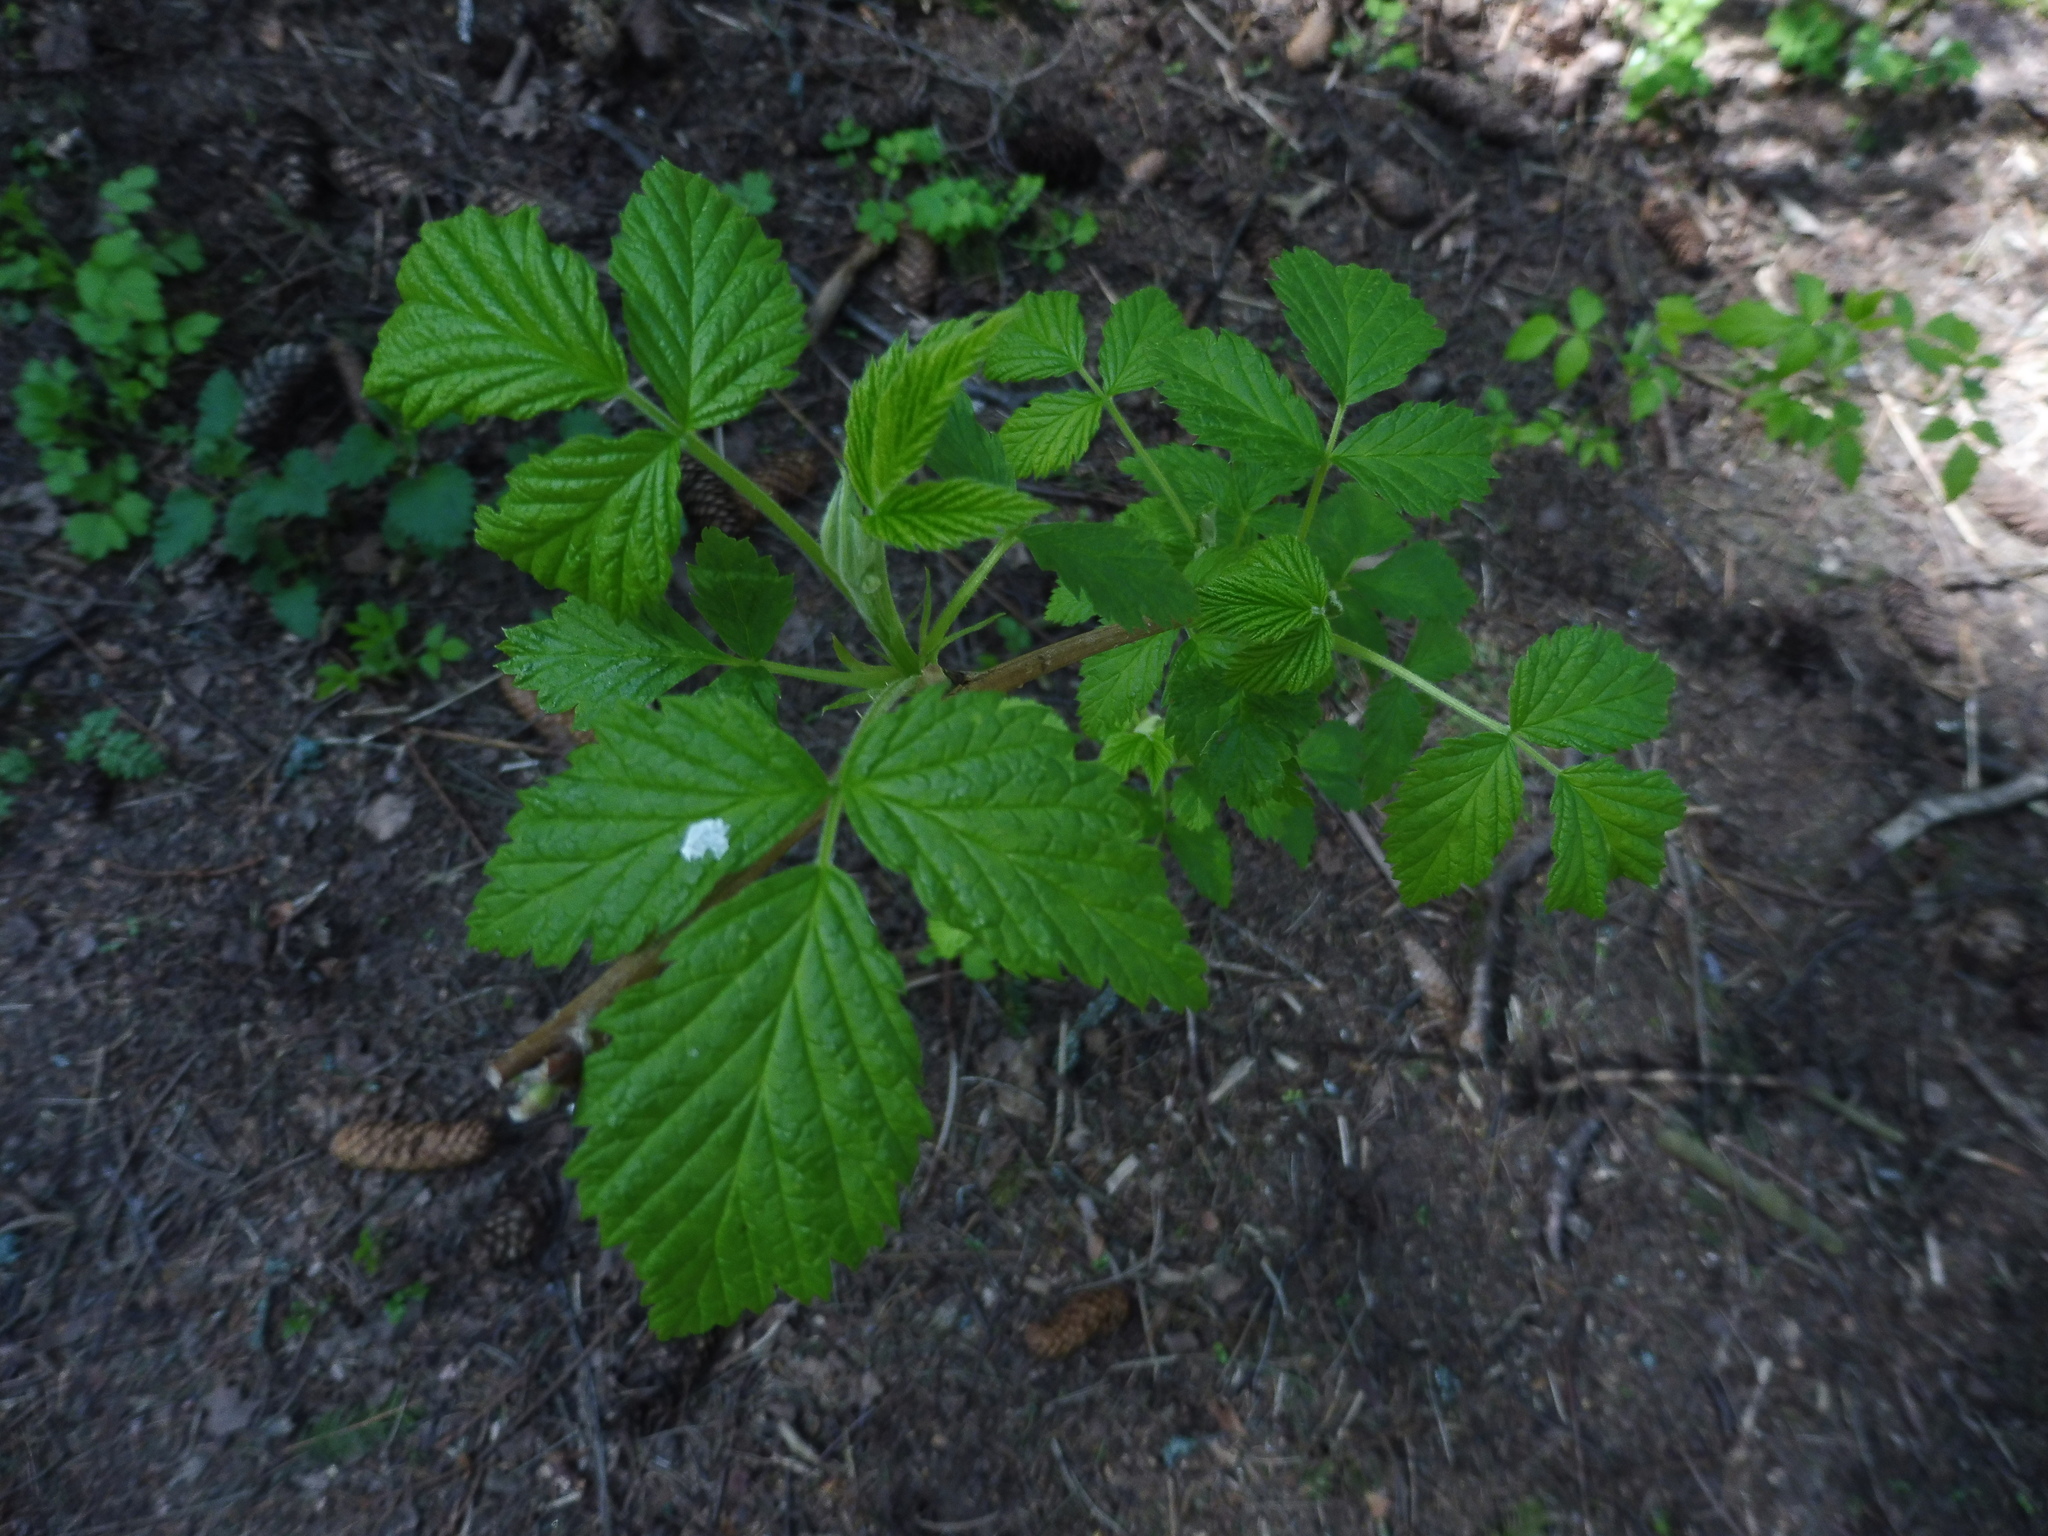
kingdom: Plantae
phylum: Tracheophyta
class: Magnoliopsida
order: Rosales
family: Rosaceae
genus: Rubus
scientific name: Rubus idaeus
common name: Raspberry
